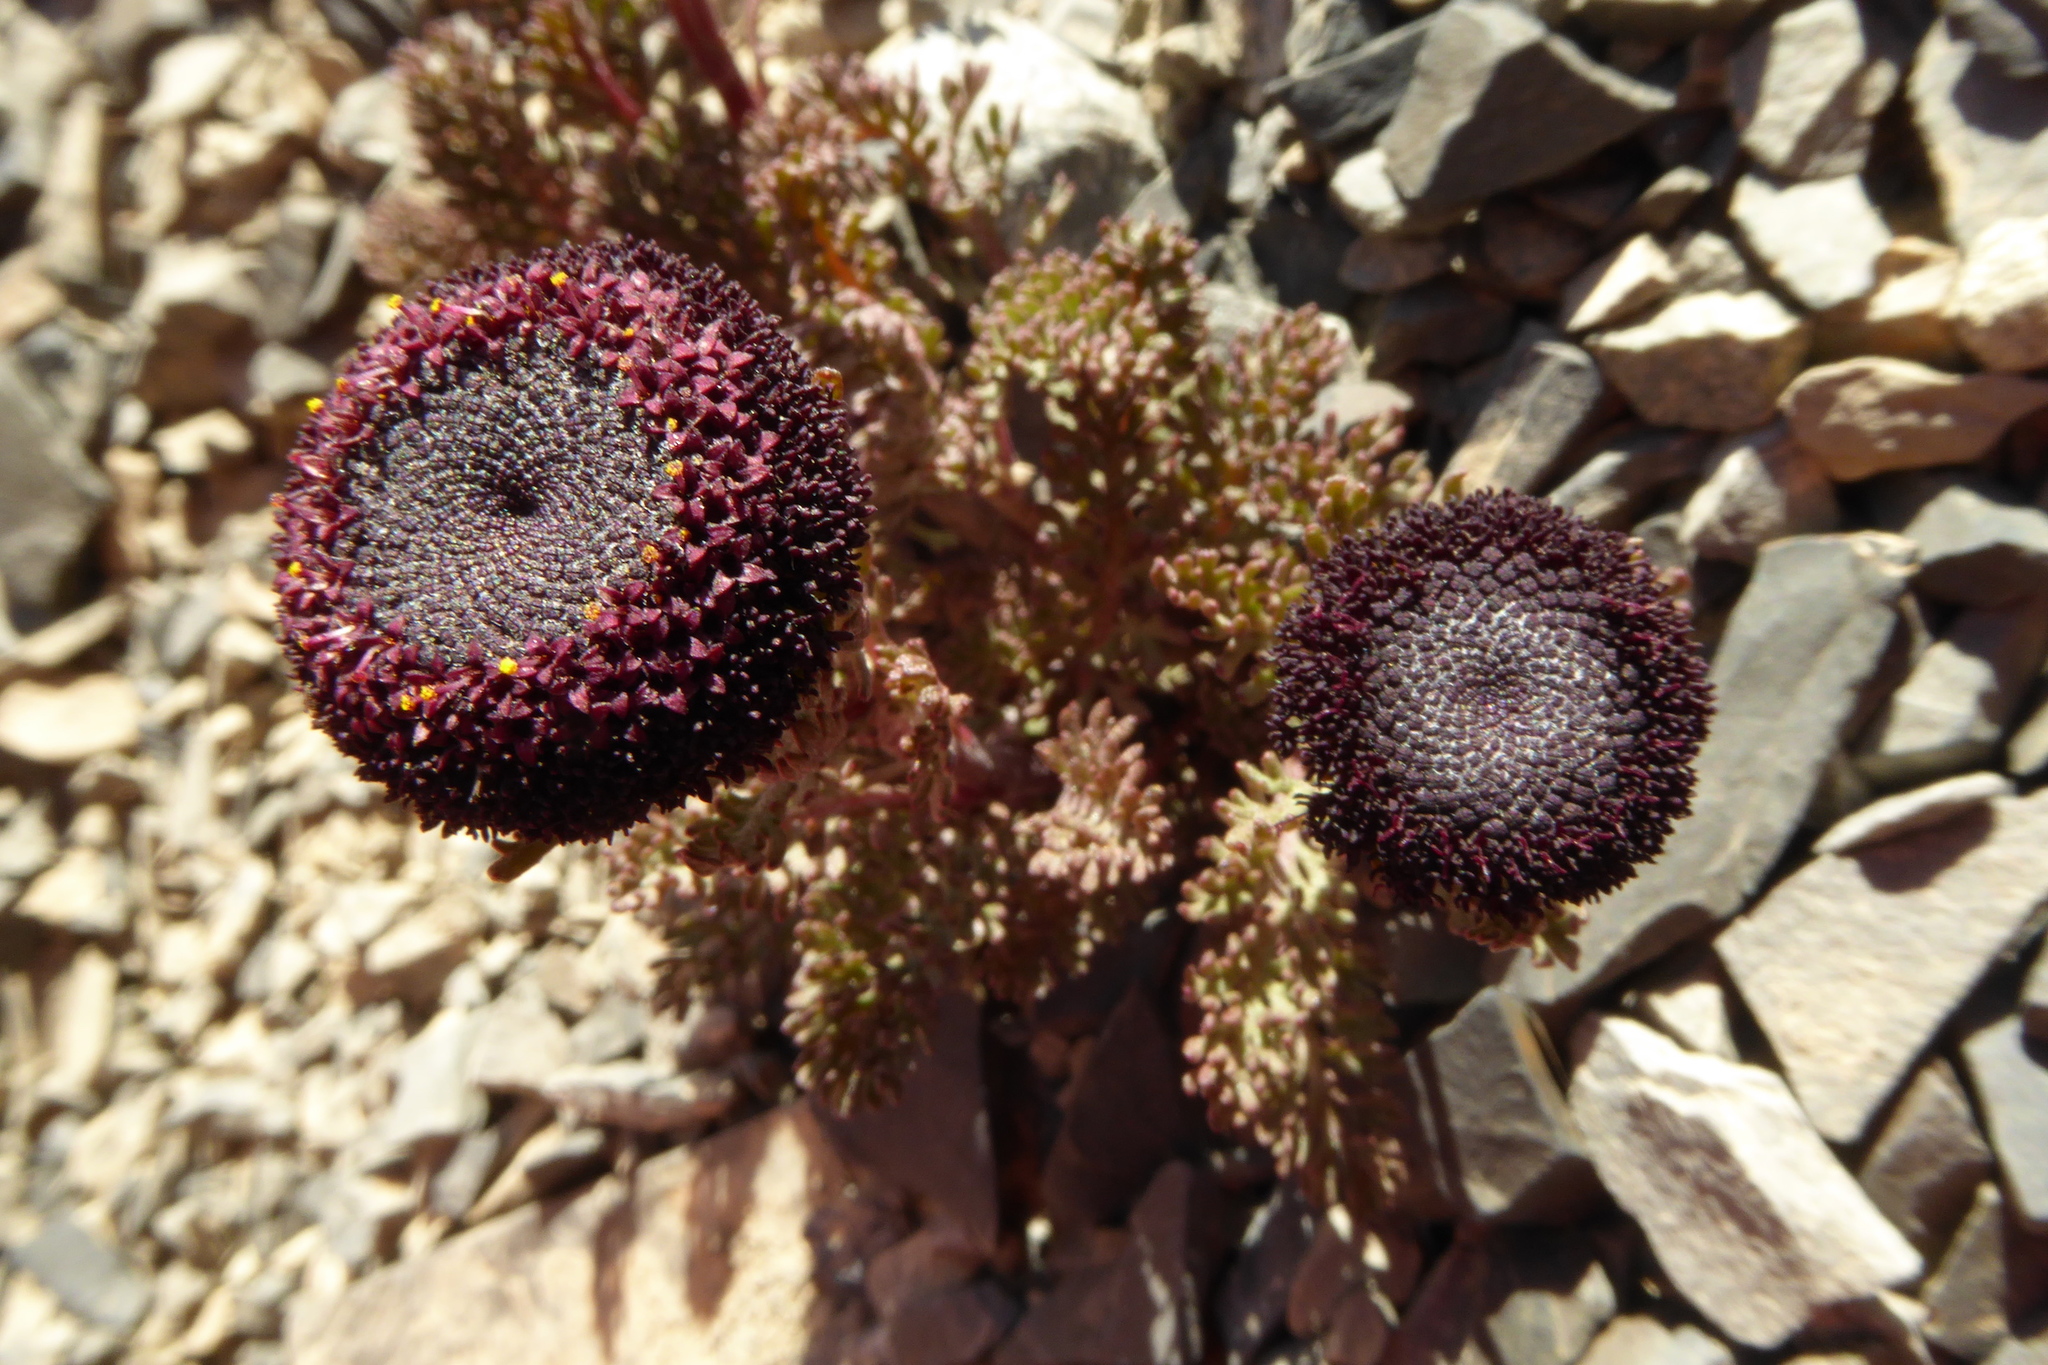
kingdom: Plantae
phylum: Tracheophyta
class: Magnoliopsida
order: Asterales
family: Asteraceae
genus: Leptinella
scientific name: Leptinella atrata
